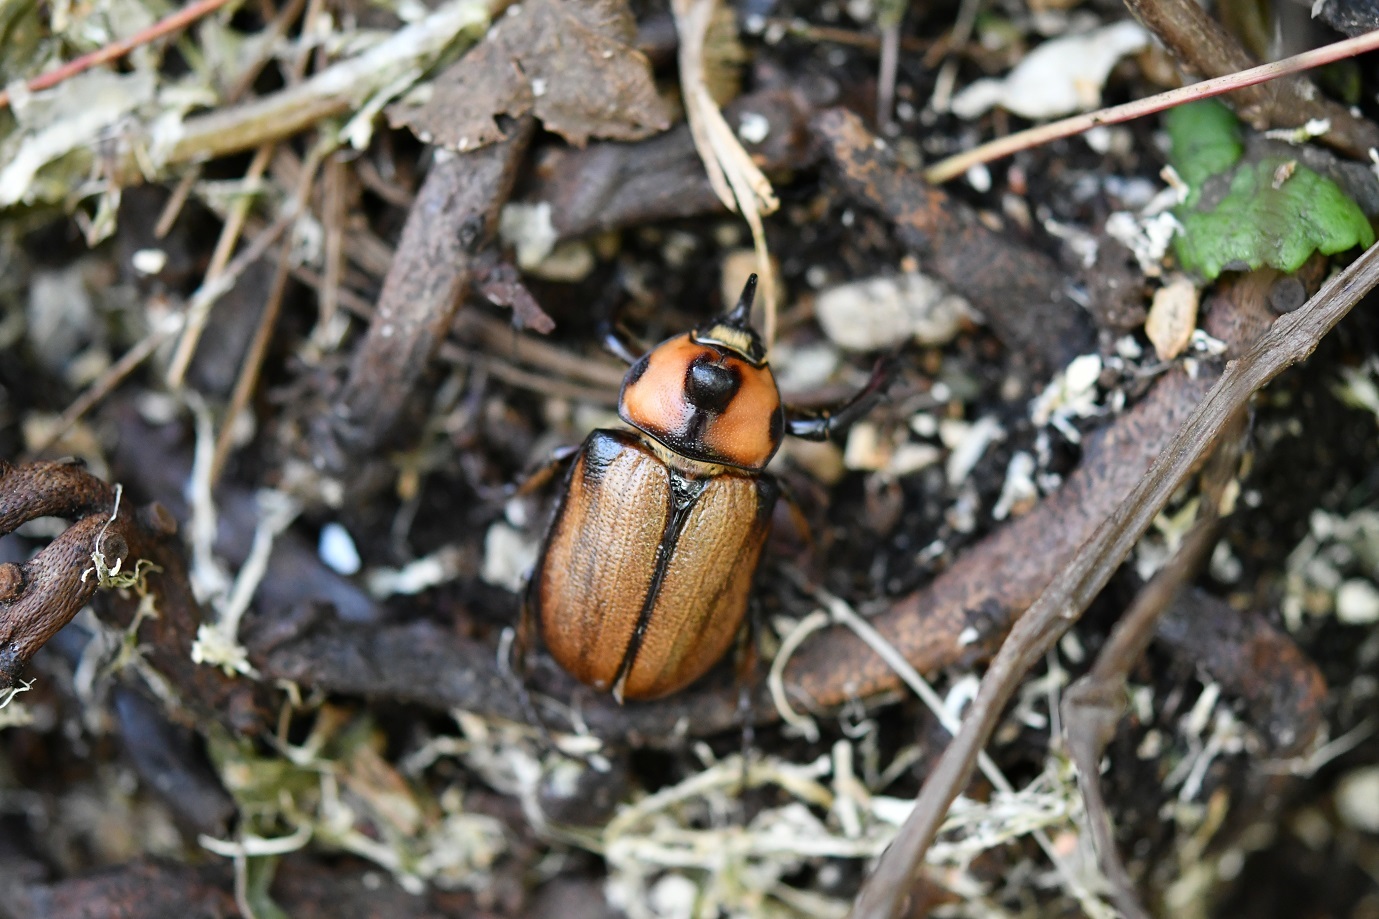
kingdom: Animalia
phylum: Arthropoda
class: Insecta
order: Coleoptera
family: Scarabaeidae
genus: Golofa
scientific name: Golofa pizarro
